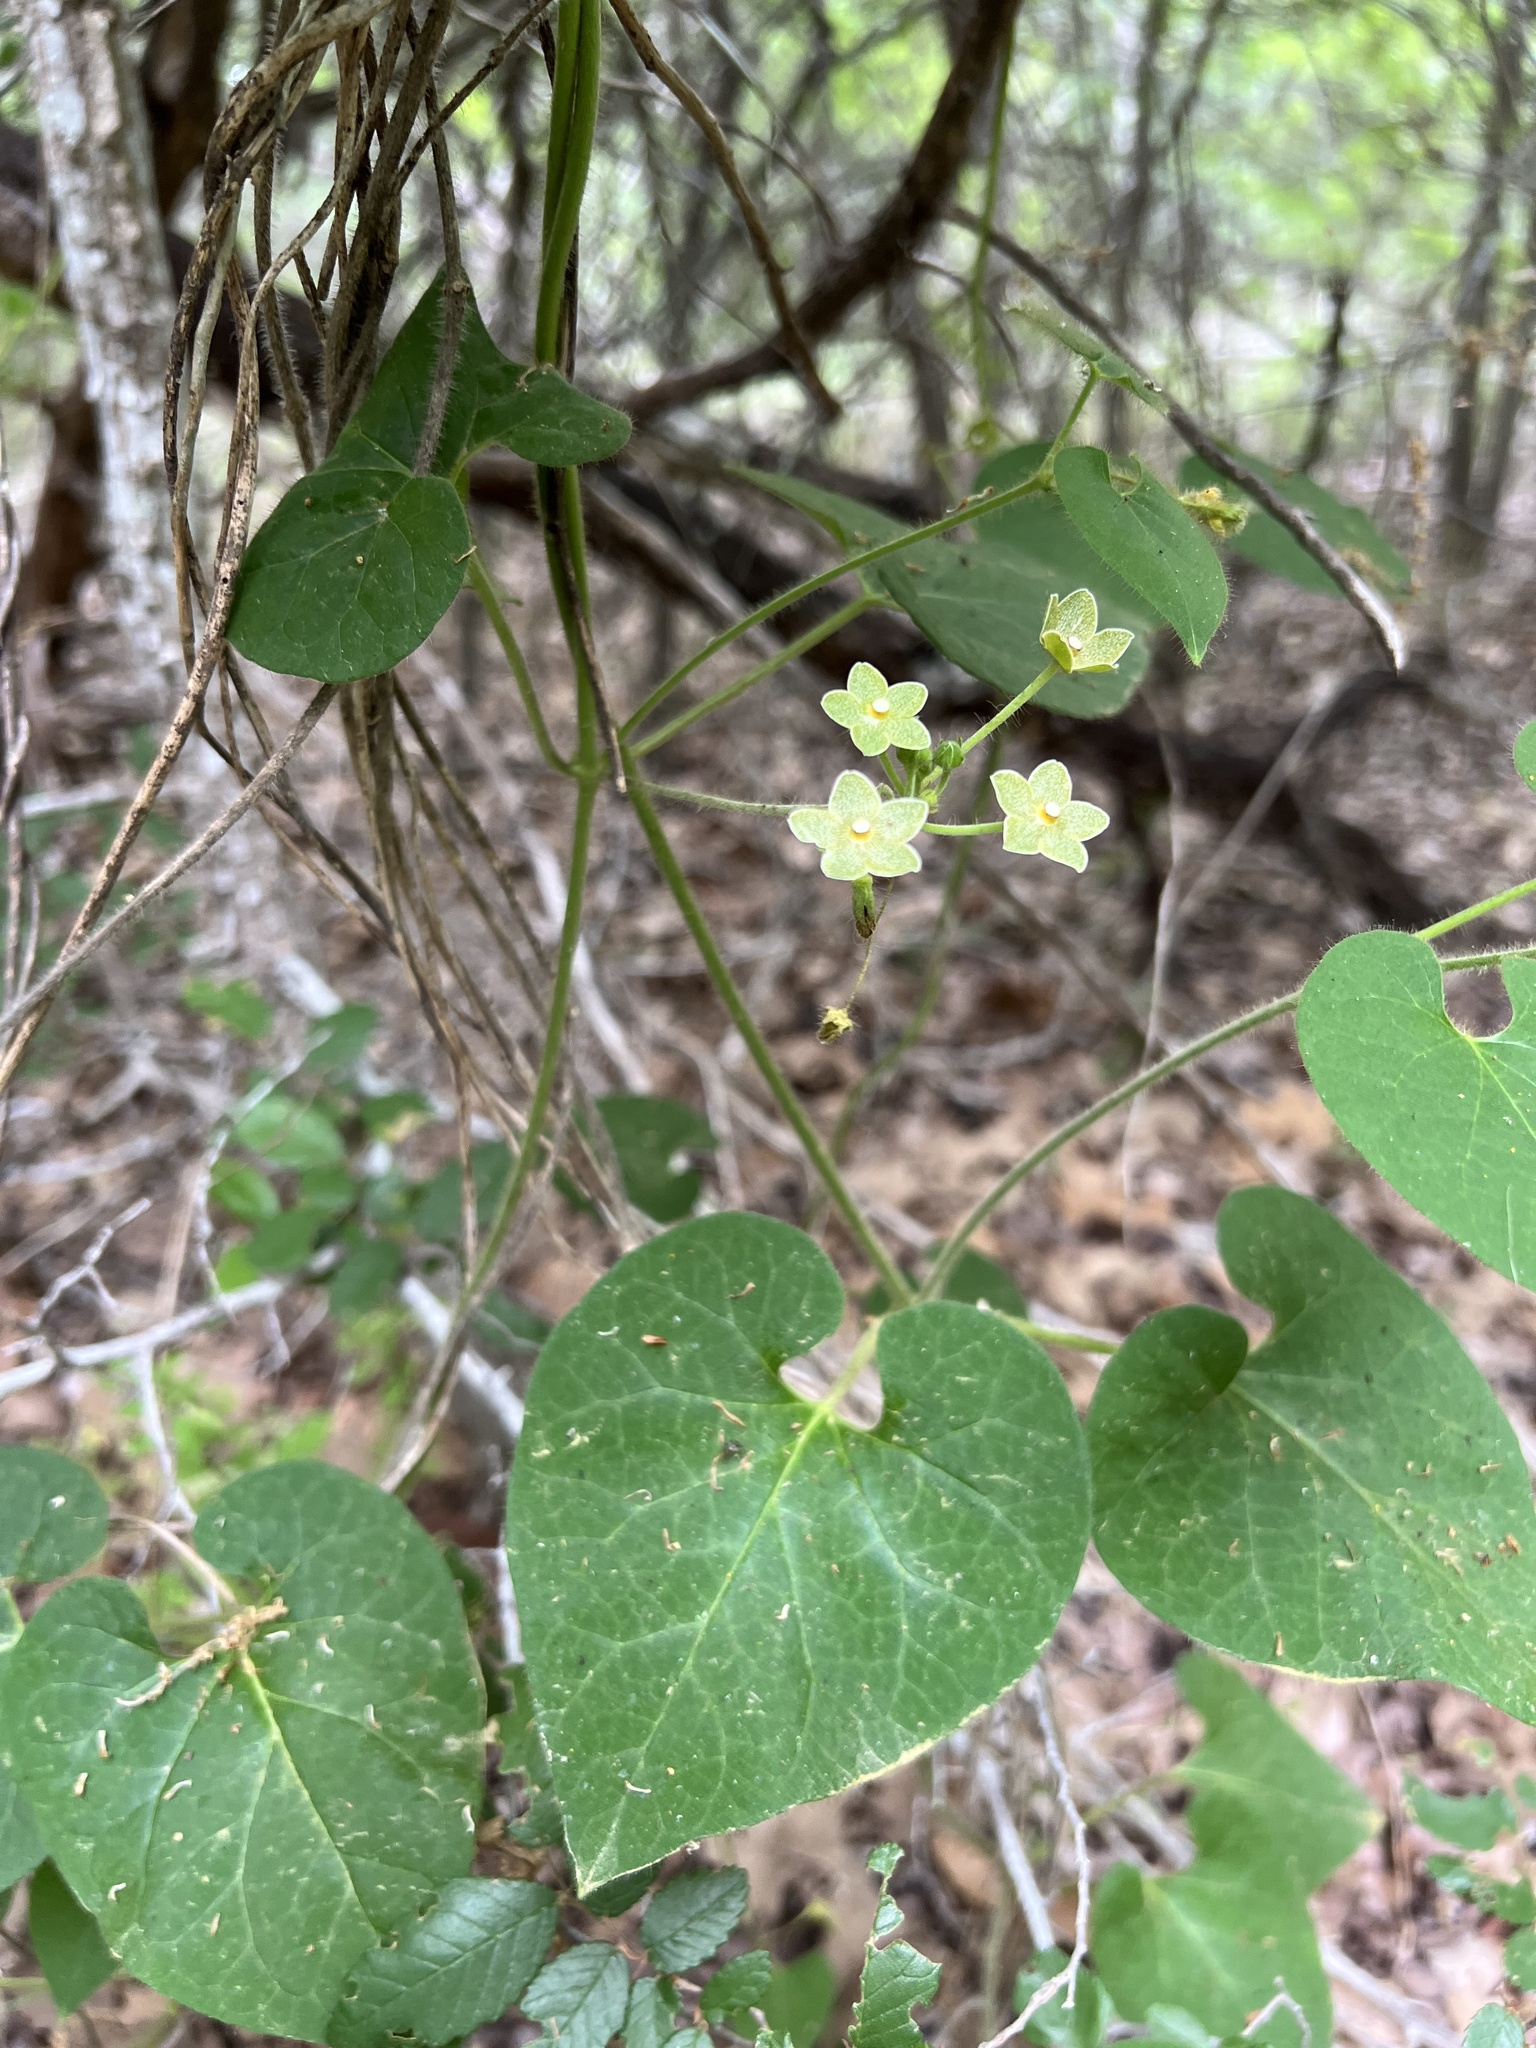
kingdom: Plantae
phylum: Tracheophyta
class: Magnoliopsida
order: Gentianales
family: Apocynaceae
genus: Dictyanthus
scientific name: Dictyanthus reticulatus
